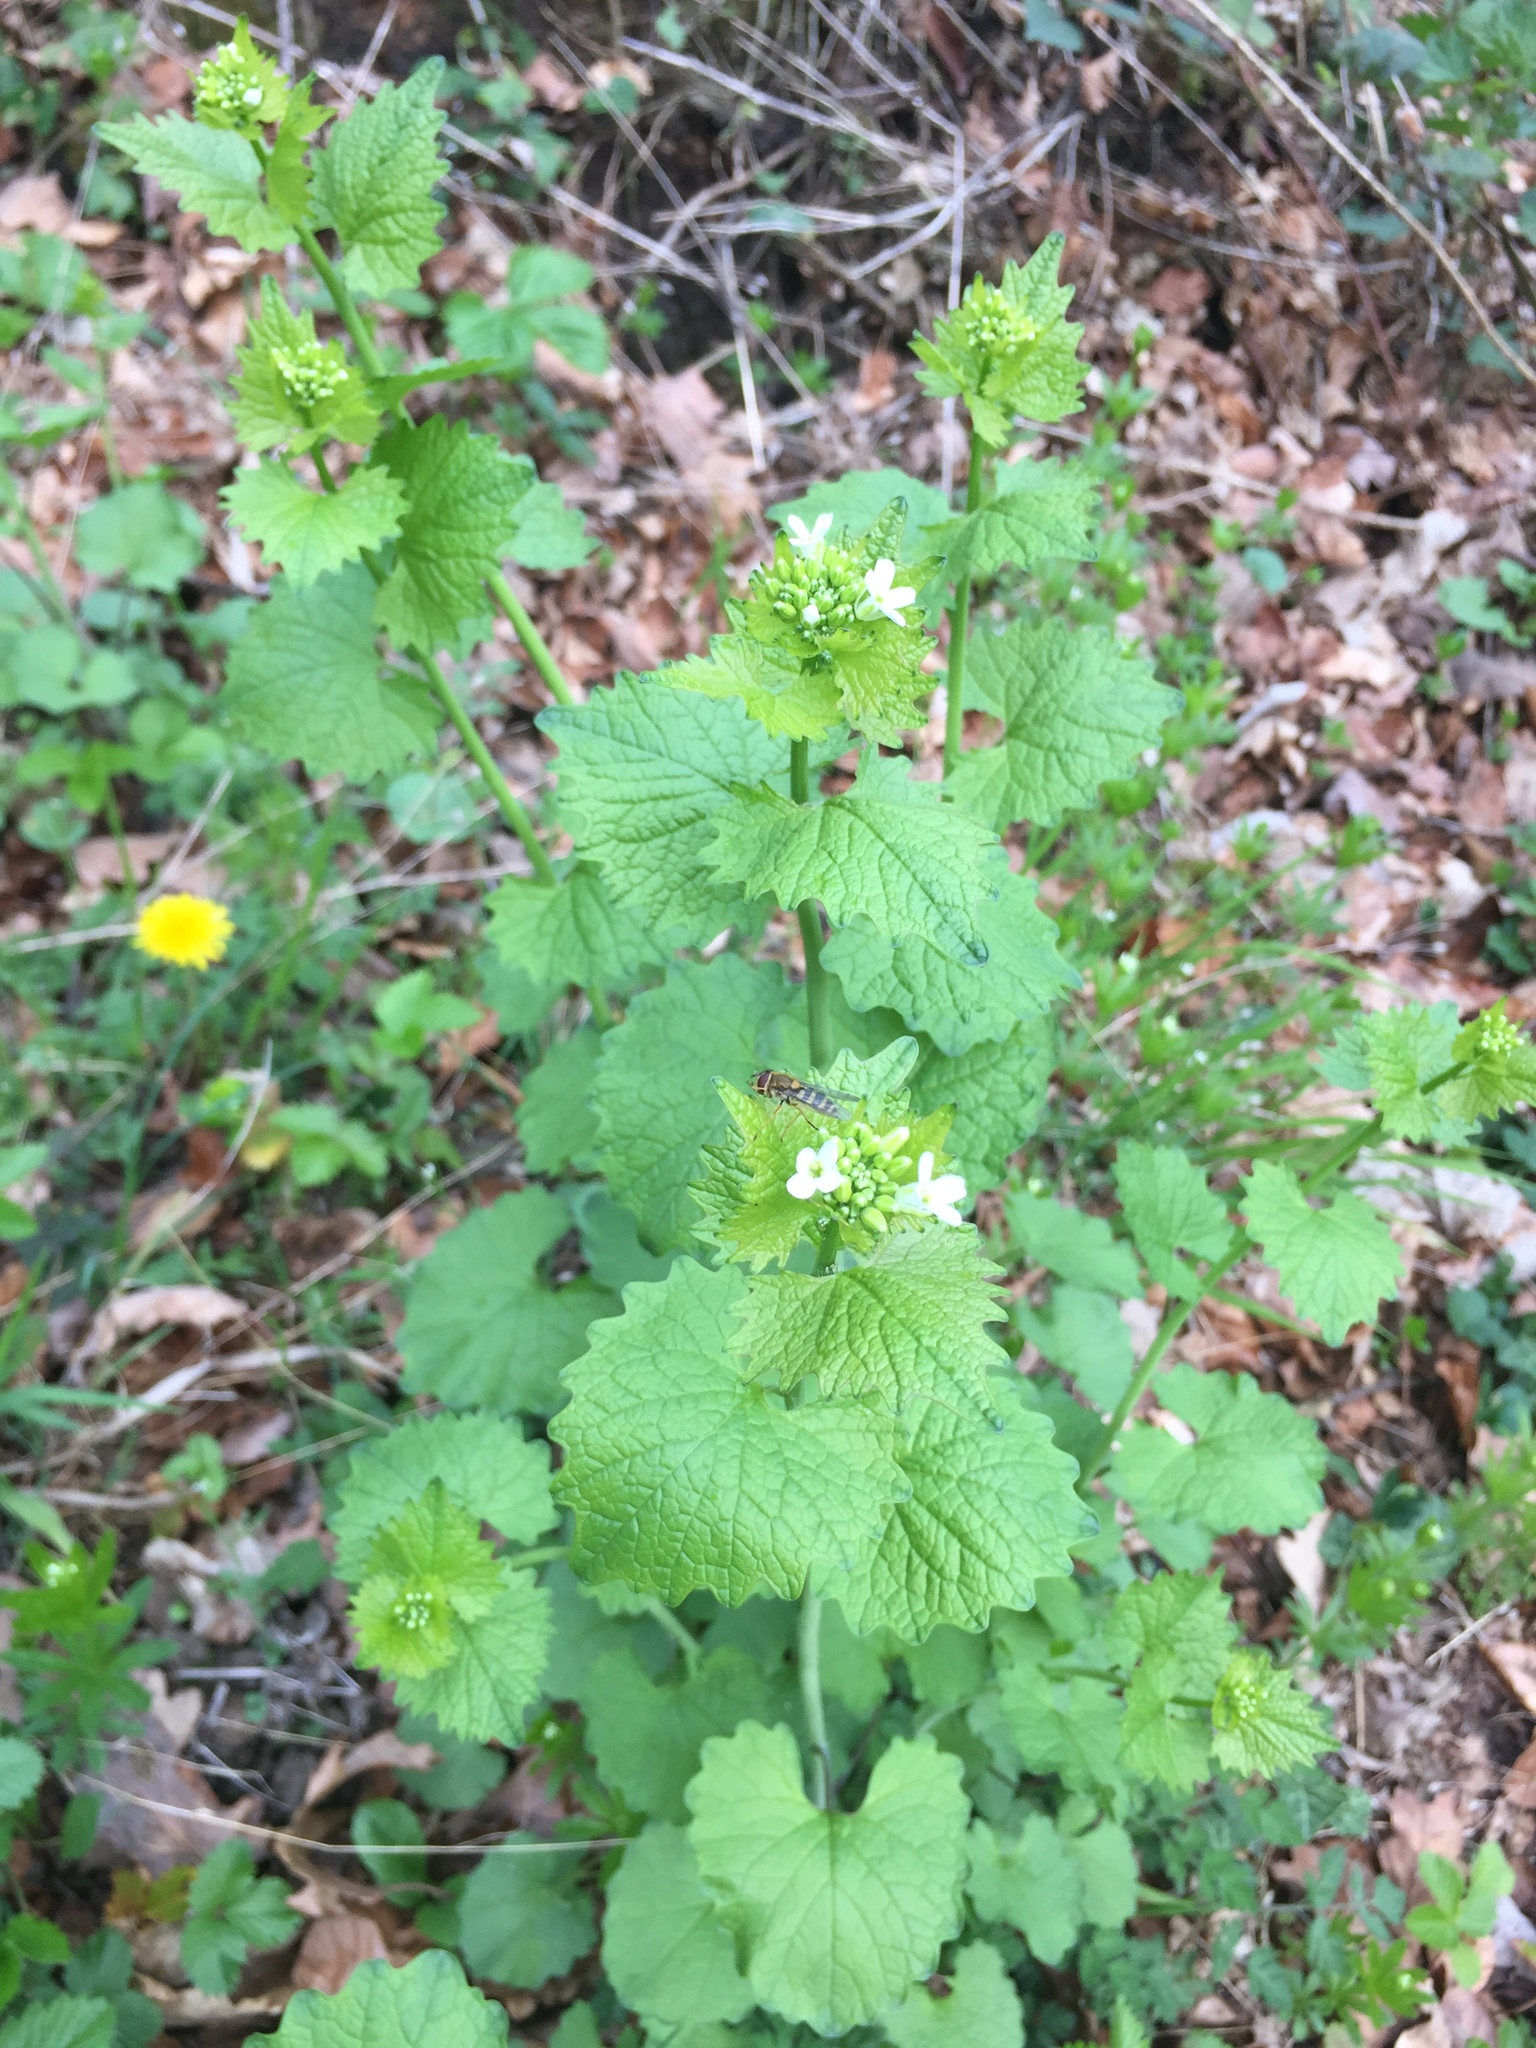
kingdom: Plantae
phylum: Tracheophyta
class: Magnoliopsida
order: Brassicales
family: Brassicaceae
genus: Alliaria
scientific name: Alliaria petiolata
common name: Garlic mustard
